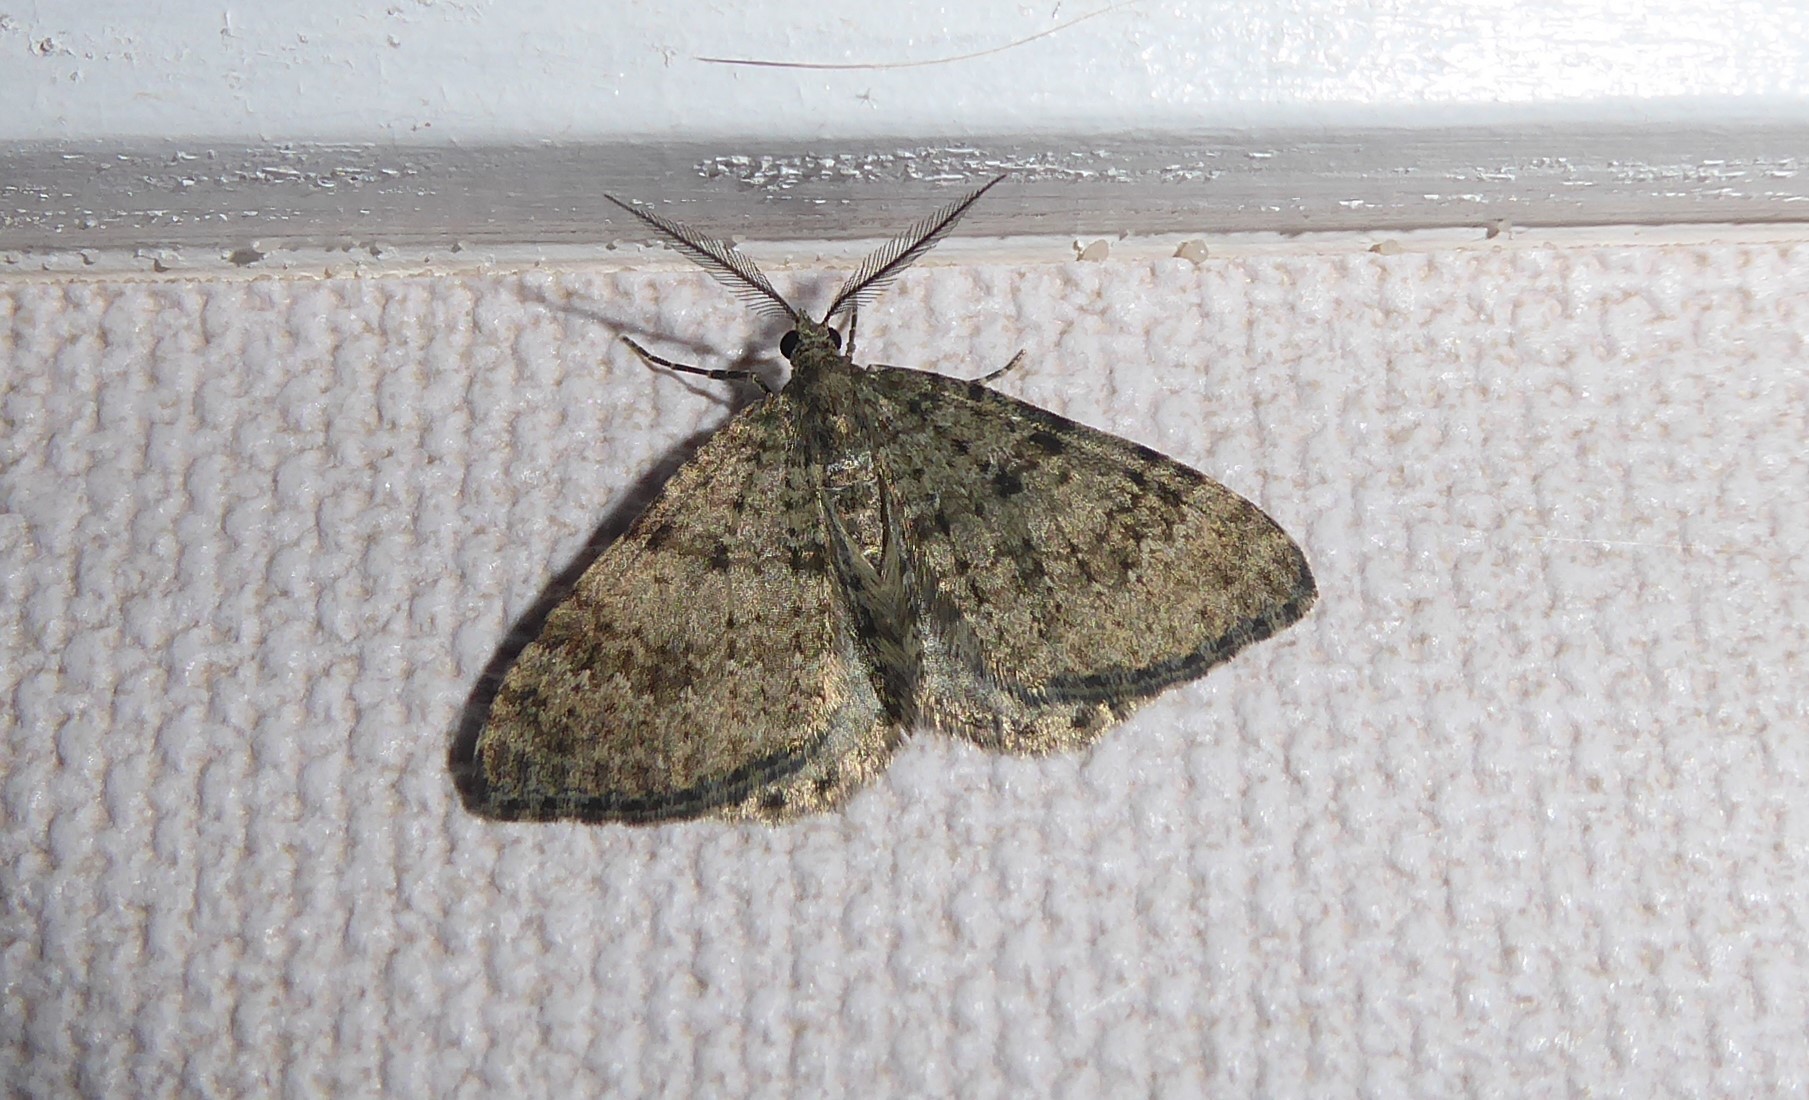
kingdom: Animalia
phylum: Arthropoda
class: Insecta
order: Lepidoptera
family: Geometridae
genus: Helastia
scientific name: Helastia corcularia
